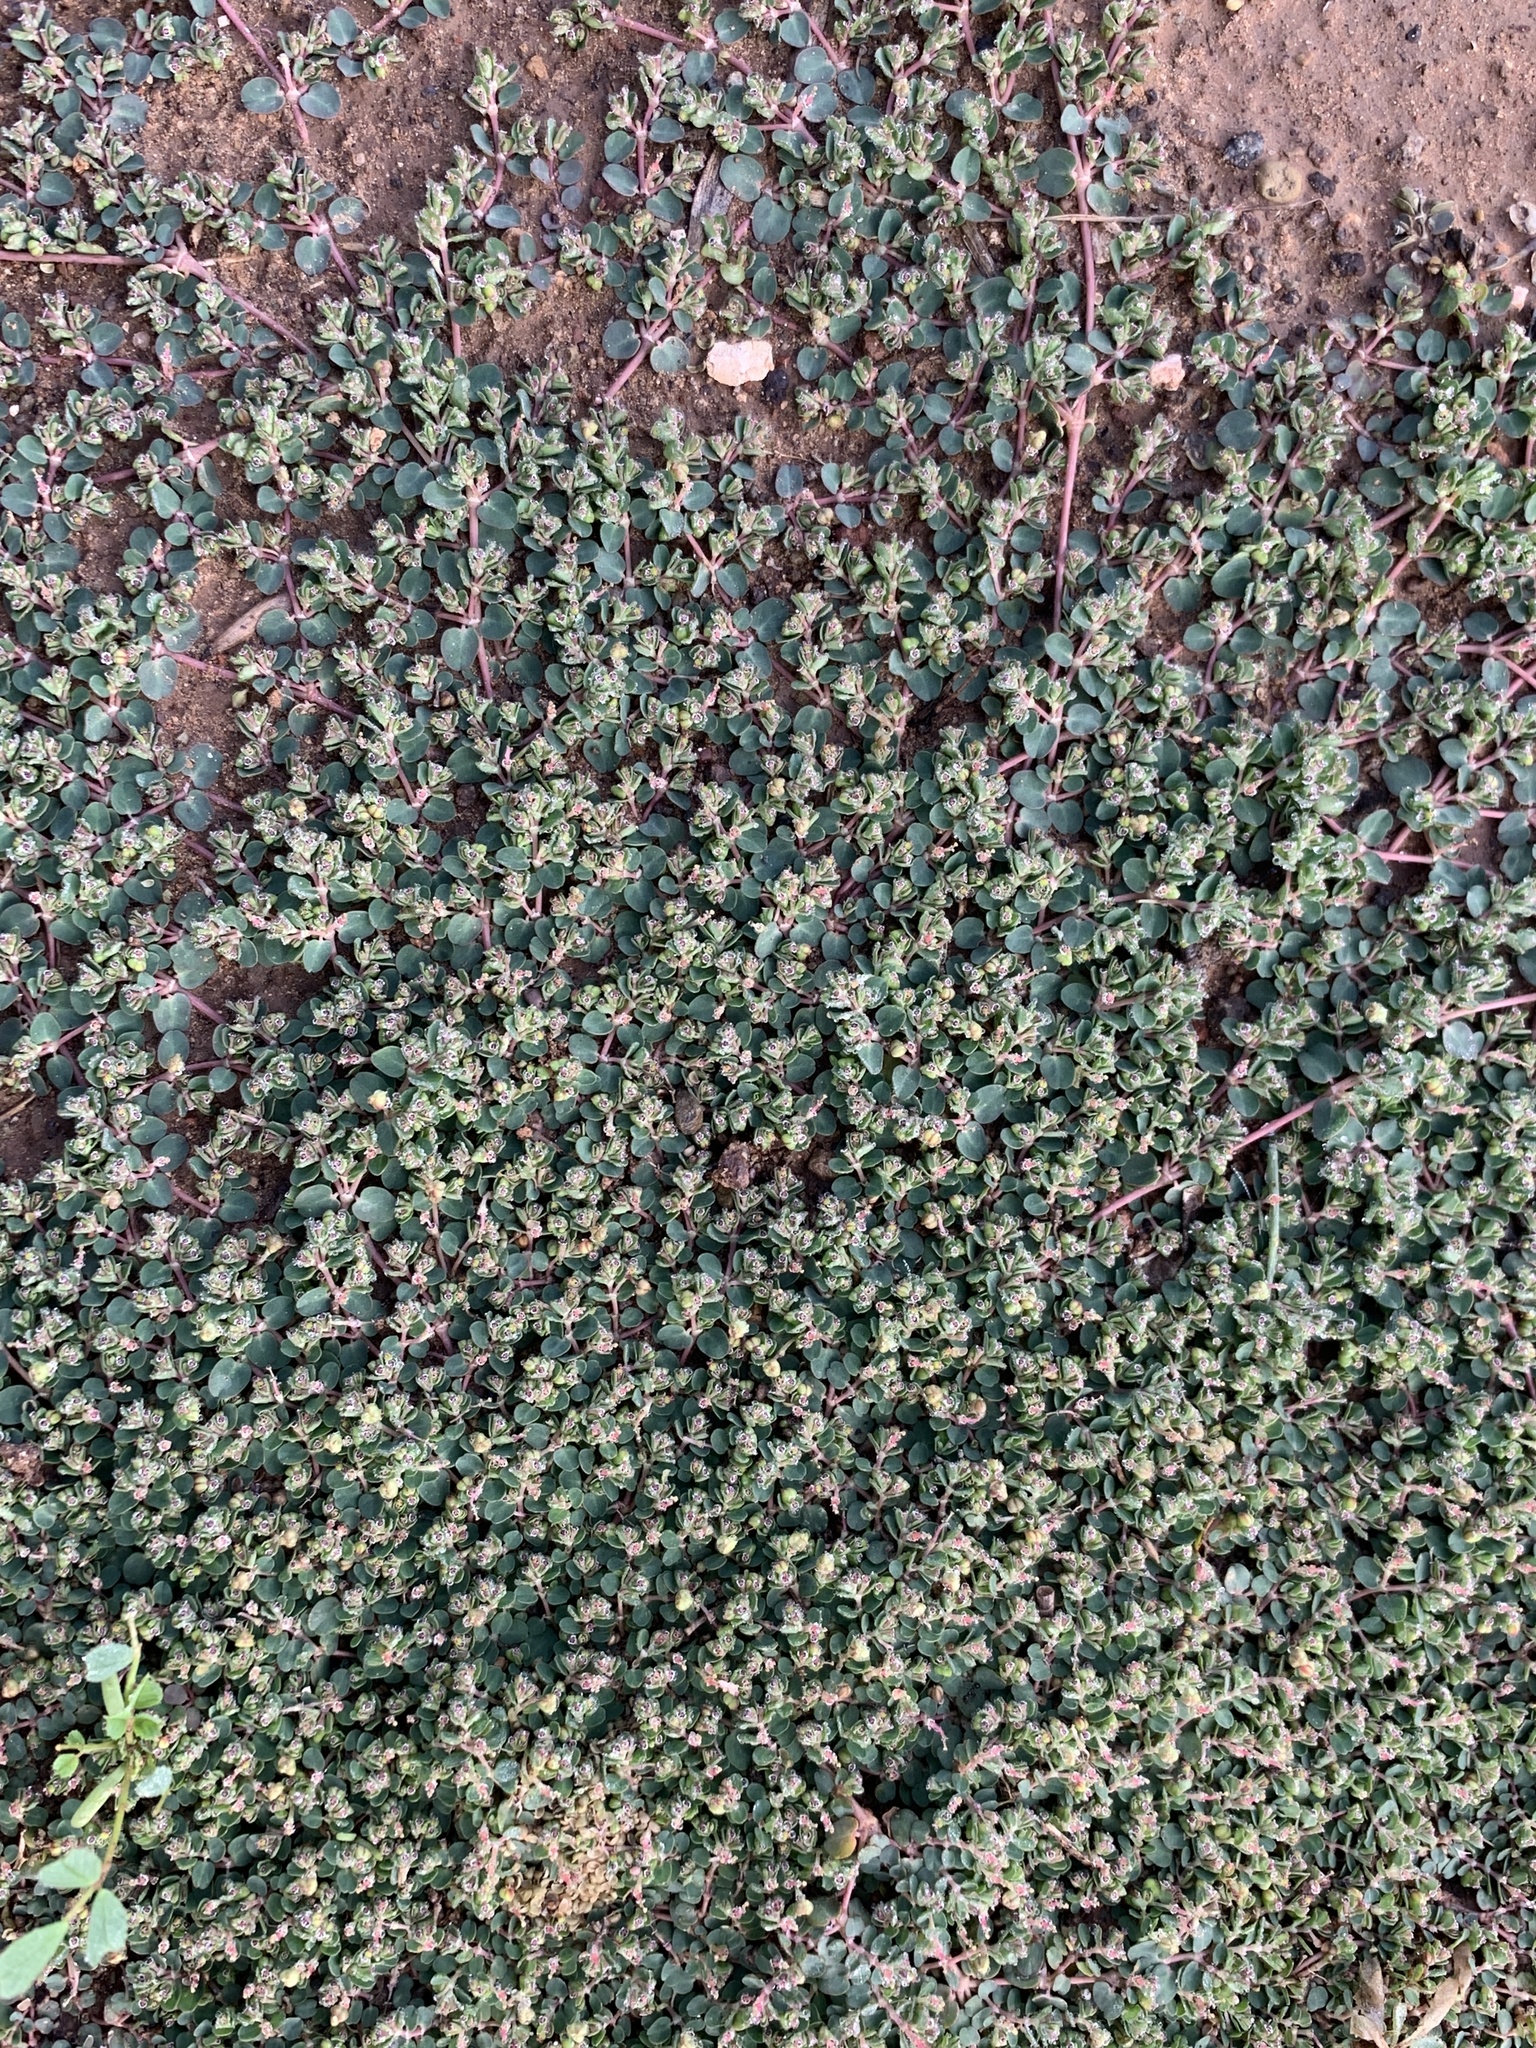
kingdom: Plantae
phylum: Tracheophyta
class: Magnoliopsida
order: Malpighiales
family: Euphorbiaceae
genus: Euphorbia
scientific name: Euphorbia serpens
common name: Matted sandmat
